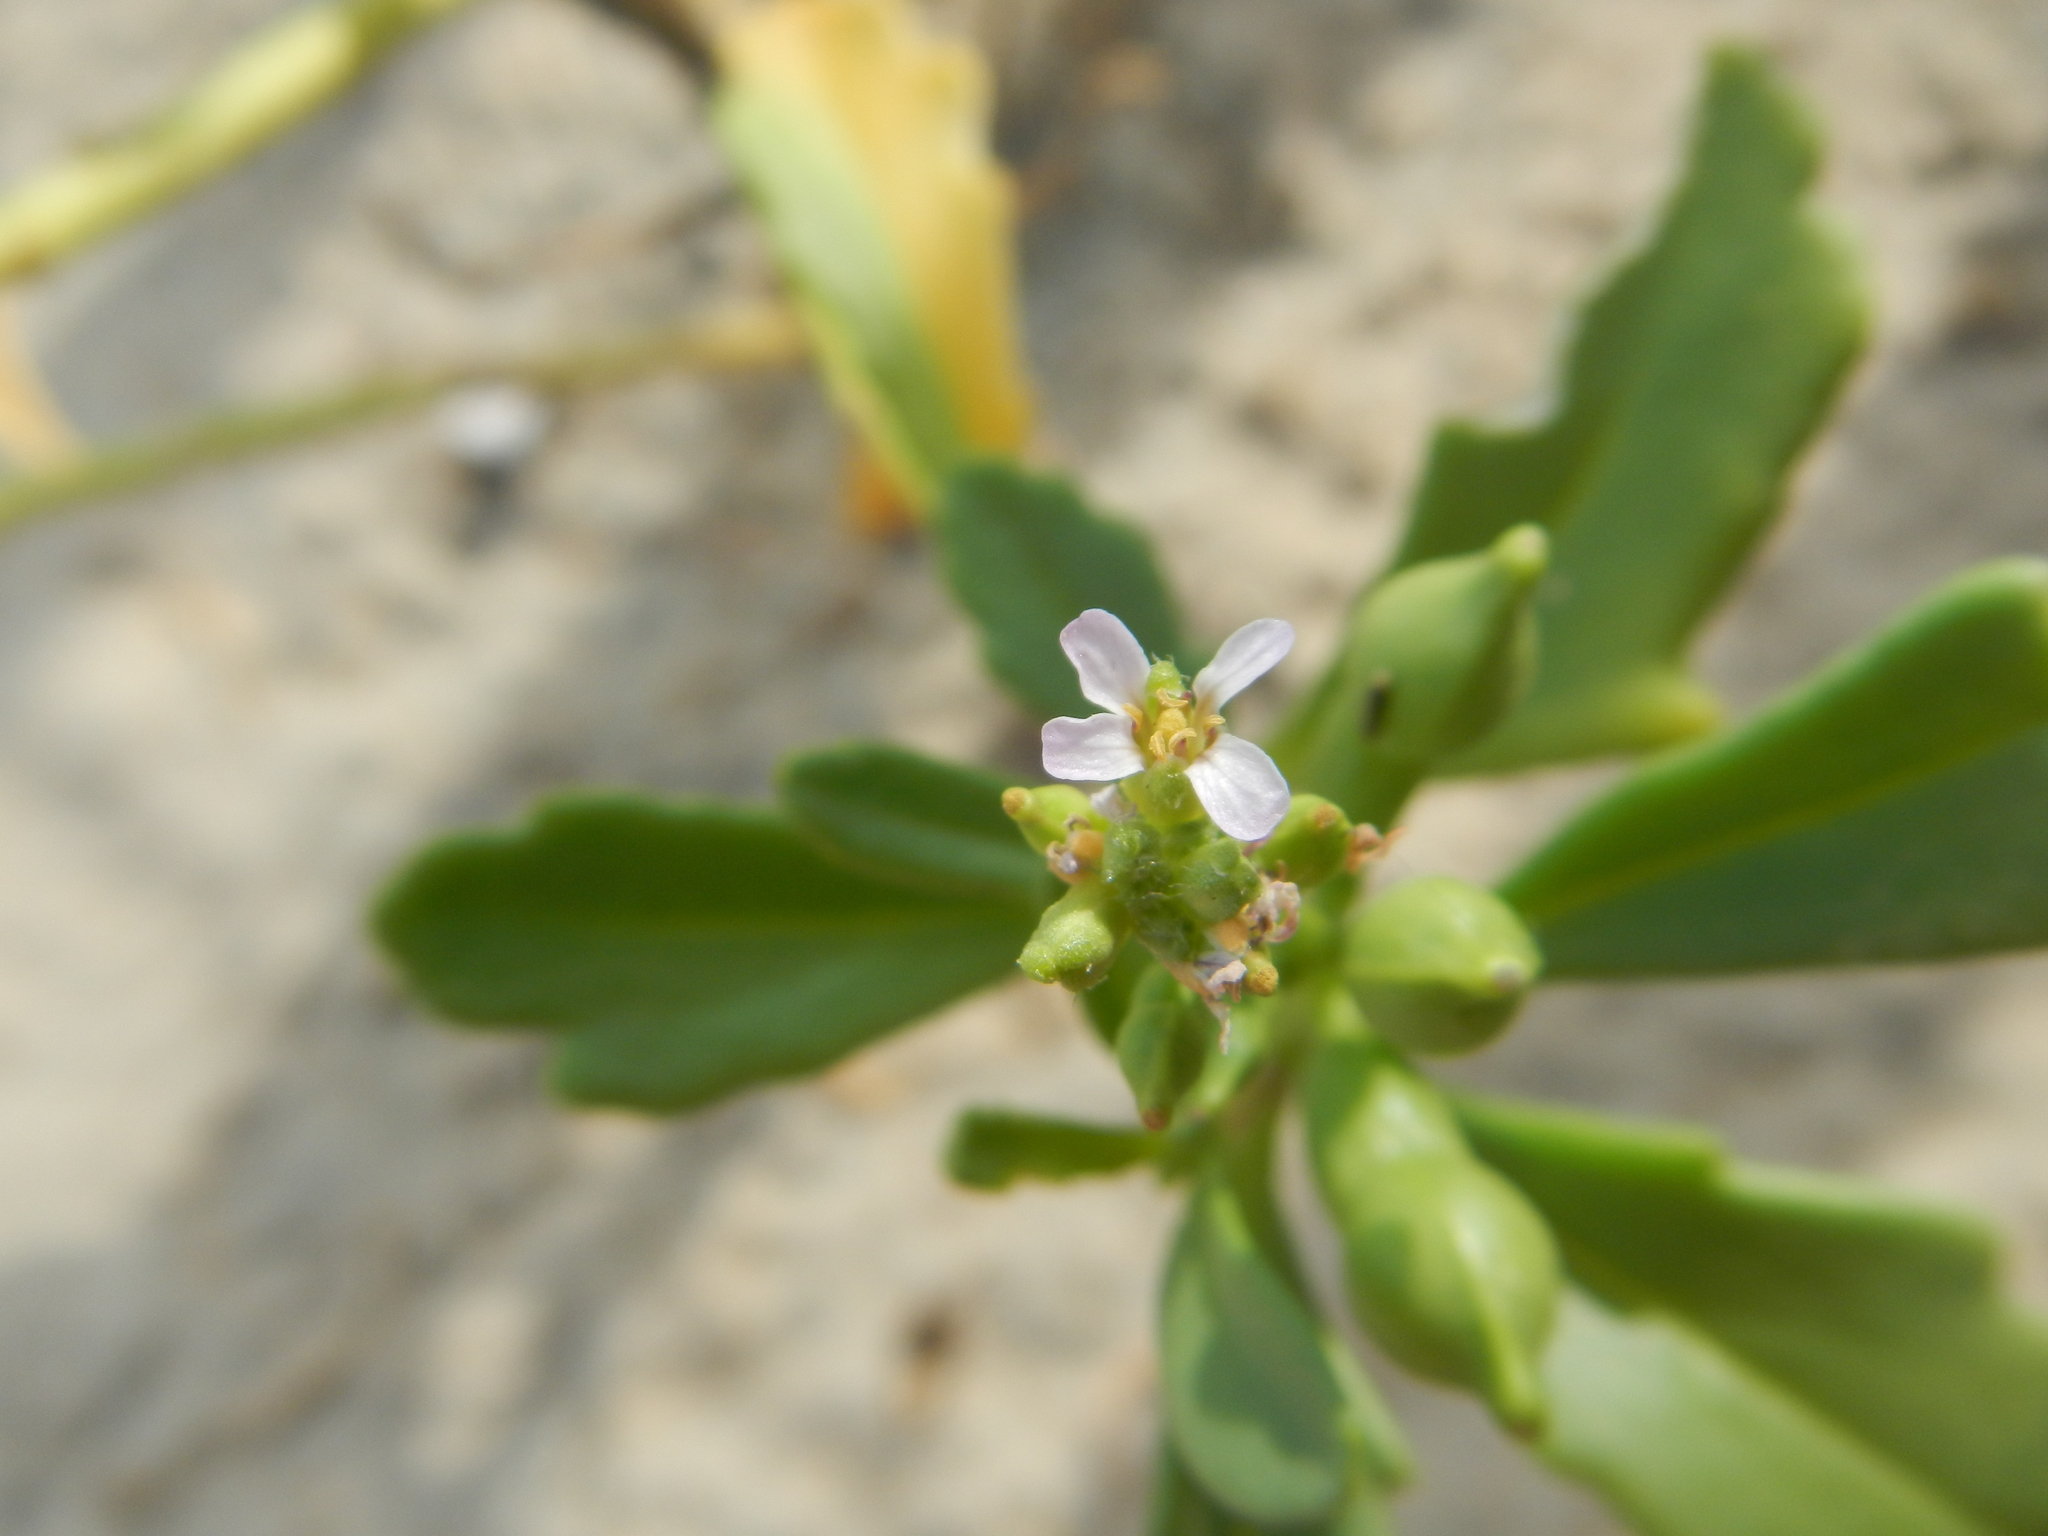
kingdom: Plantae
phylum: Tracheophyta
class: Magnoliopsida
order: Brassicales
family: Brassicaceae
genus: Cakile
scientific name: Cakile edentula
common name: American sea rocket
